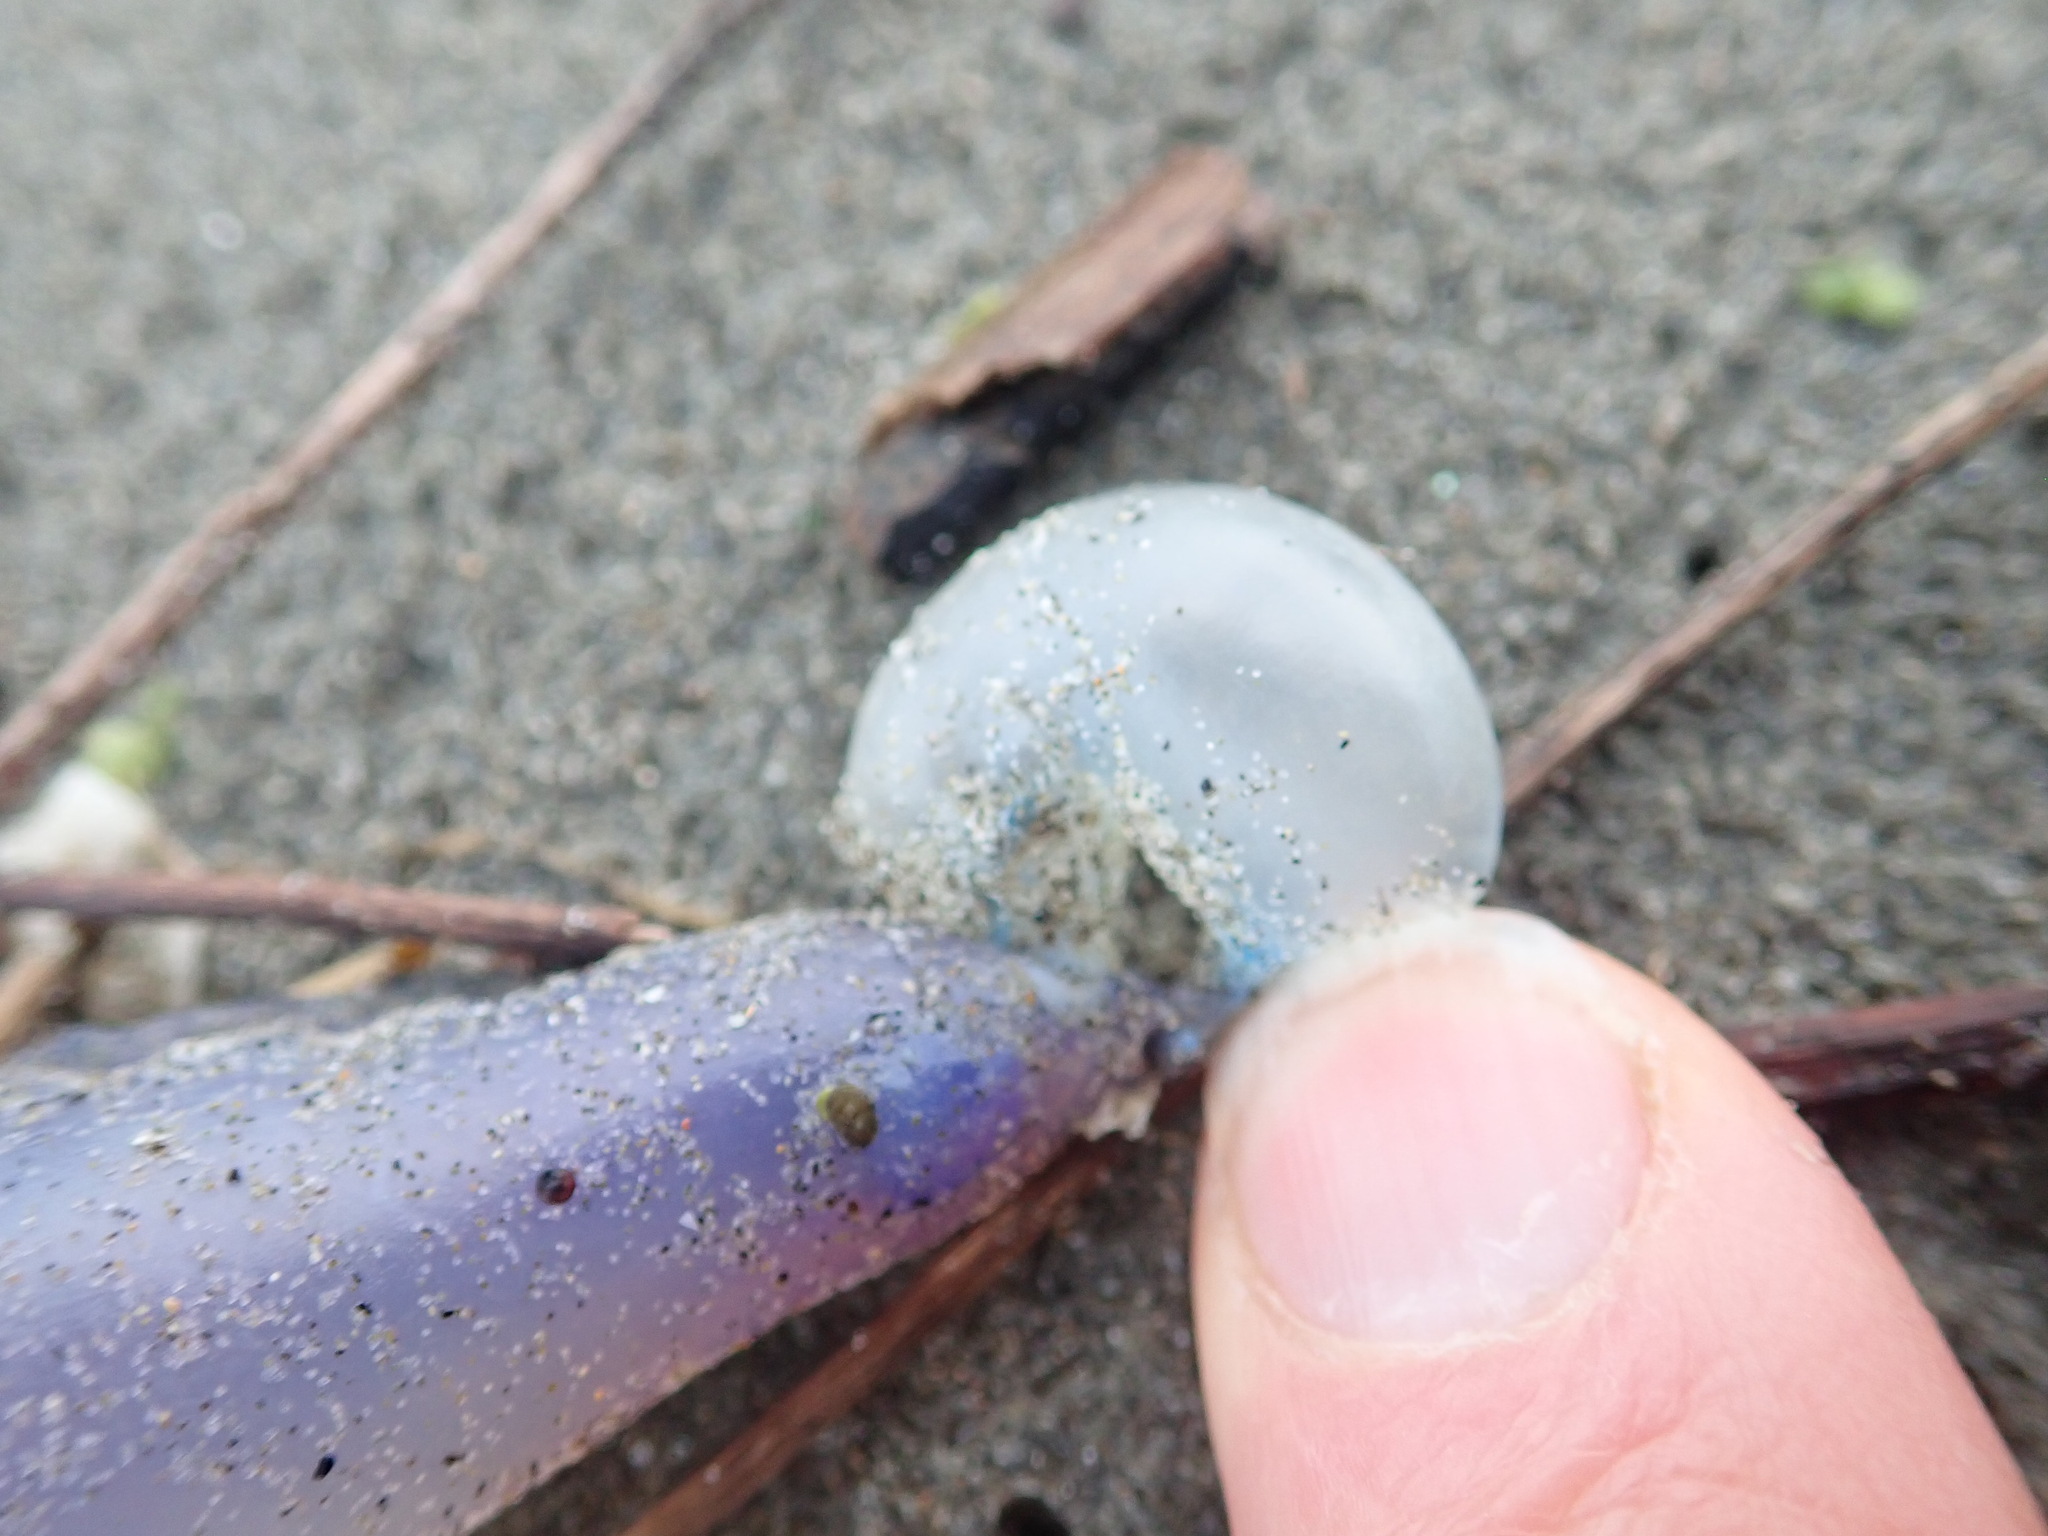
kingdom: Animalia
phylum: Cnidaria
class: Hydrozoa
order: Siphonophorae
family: Physaliidae
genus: Physalia
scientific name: Physalia physalis
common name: Portuguese man-of-war
